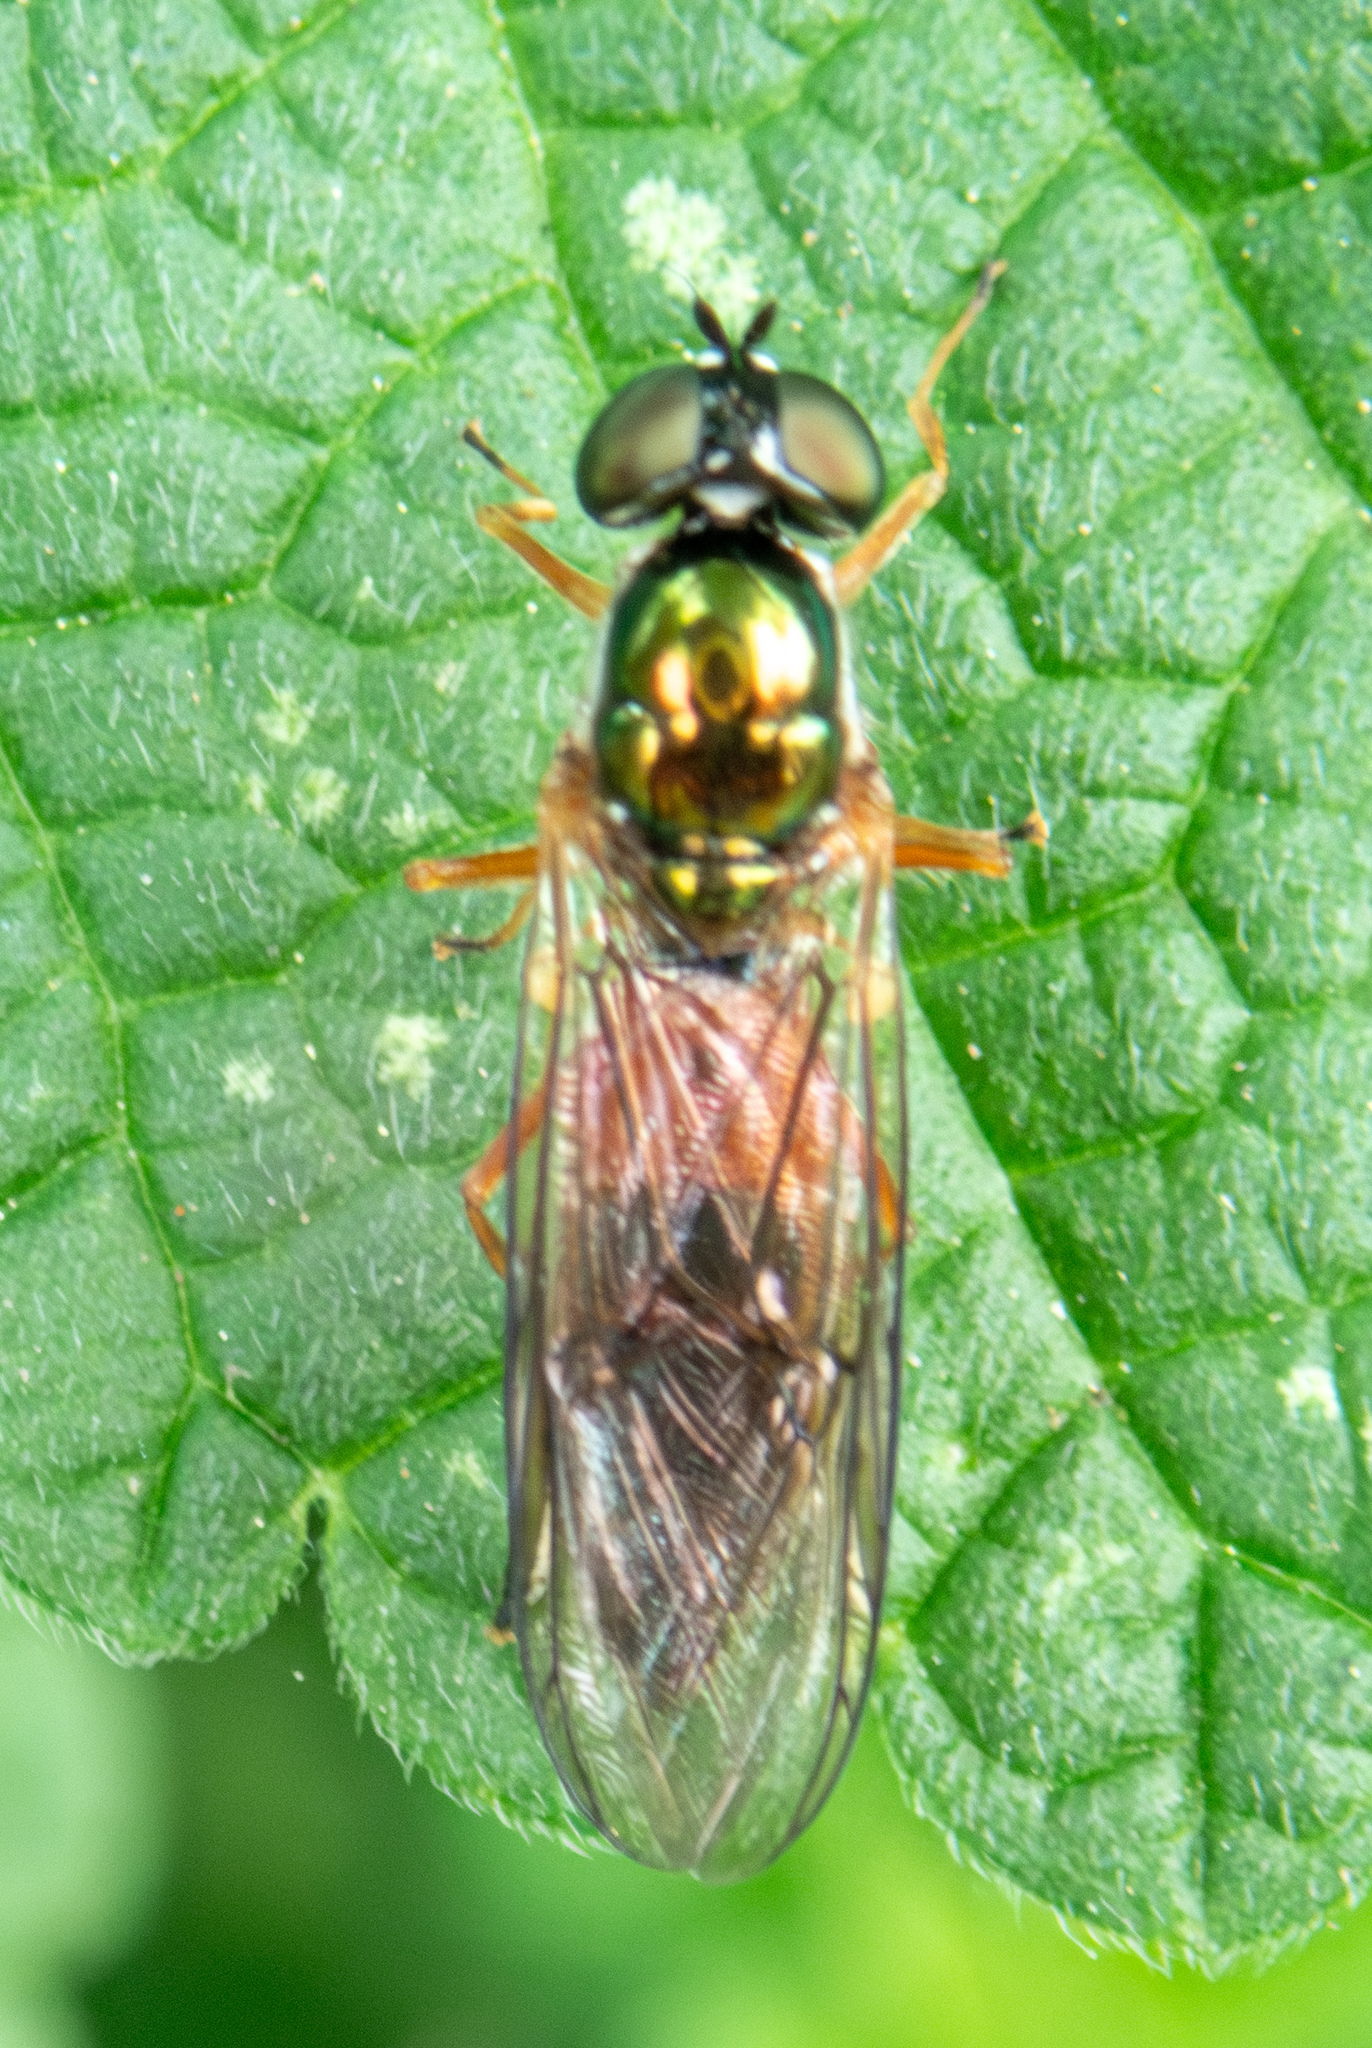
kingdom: Animalia
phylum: Arthropoda
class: Insecta
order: Diptera
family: Stratiomyidae
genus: Sargus
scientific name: Sargus bipunctatus
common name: Twin-spot centurion
